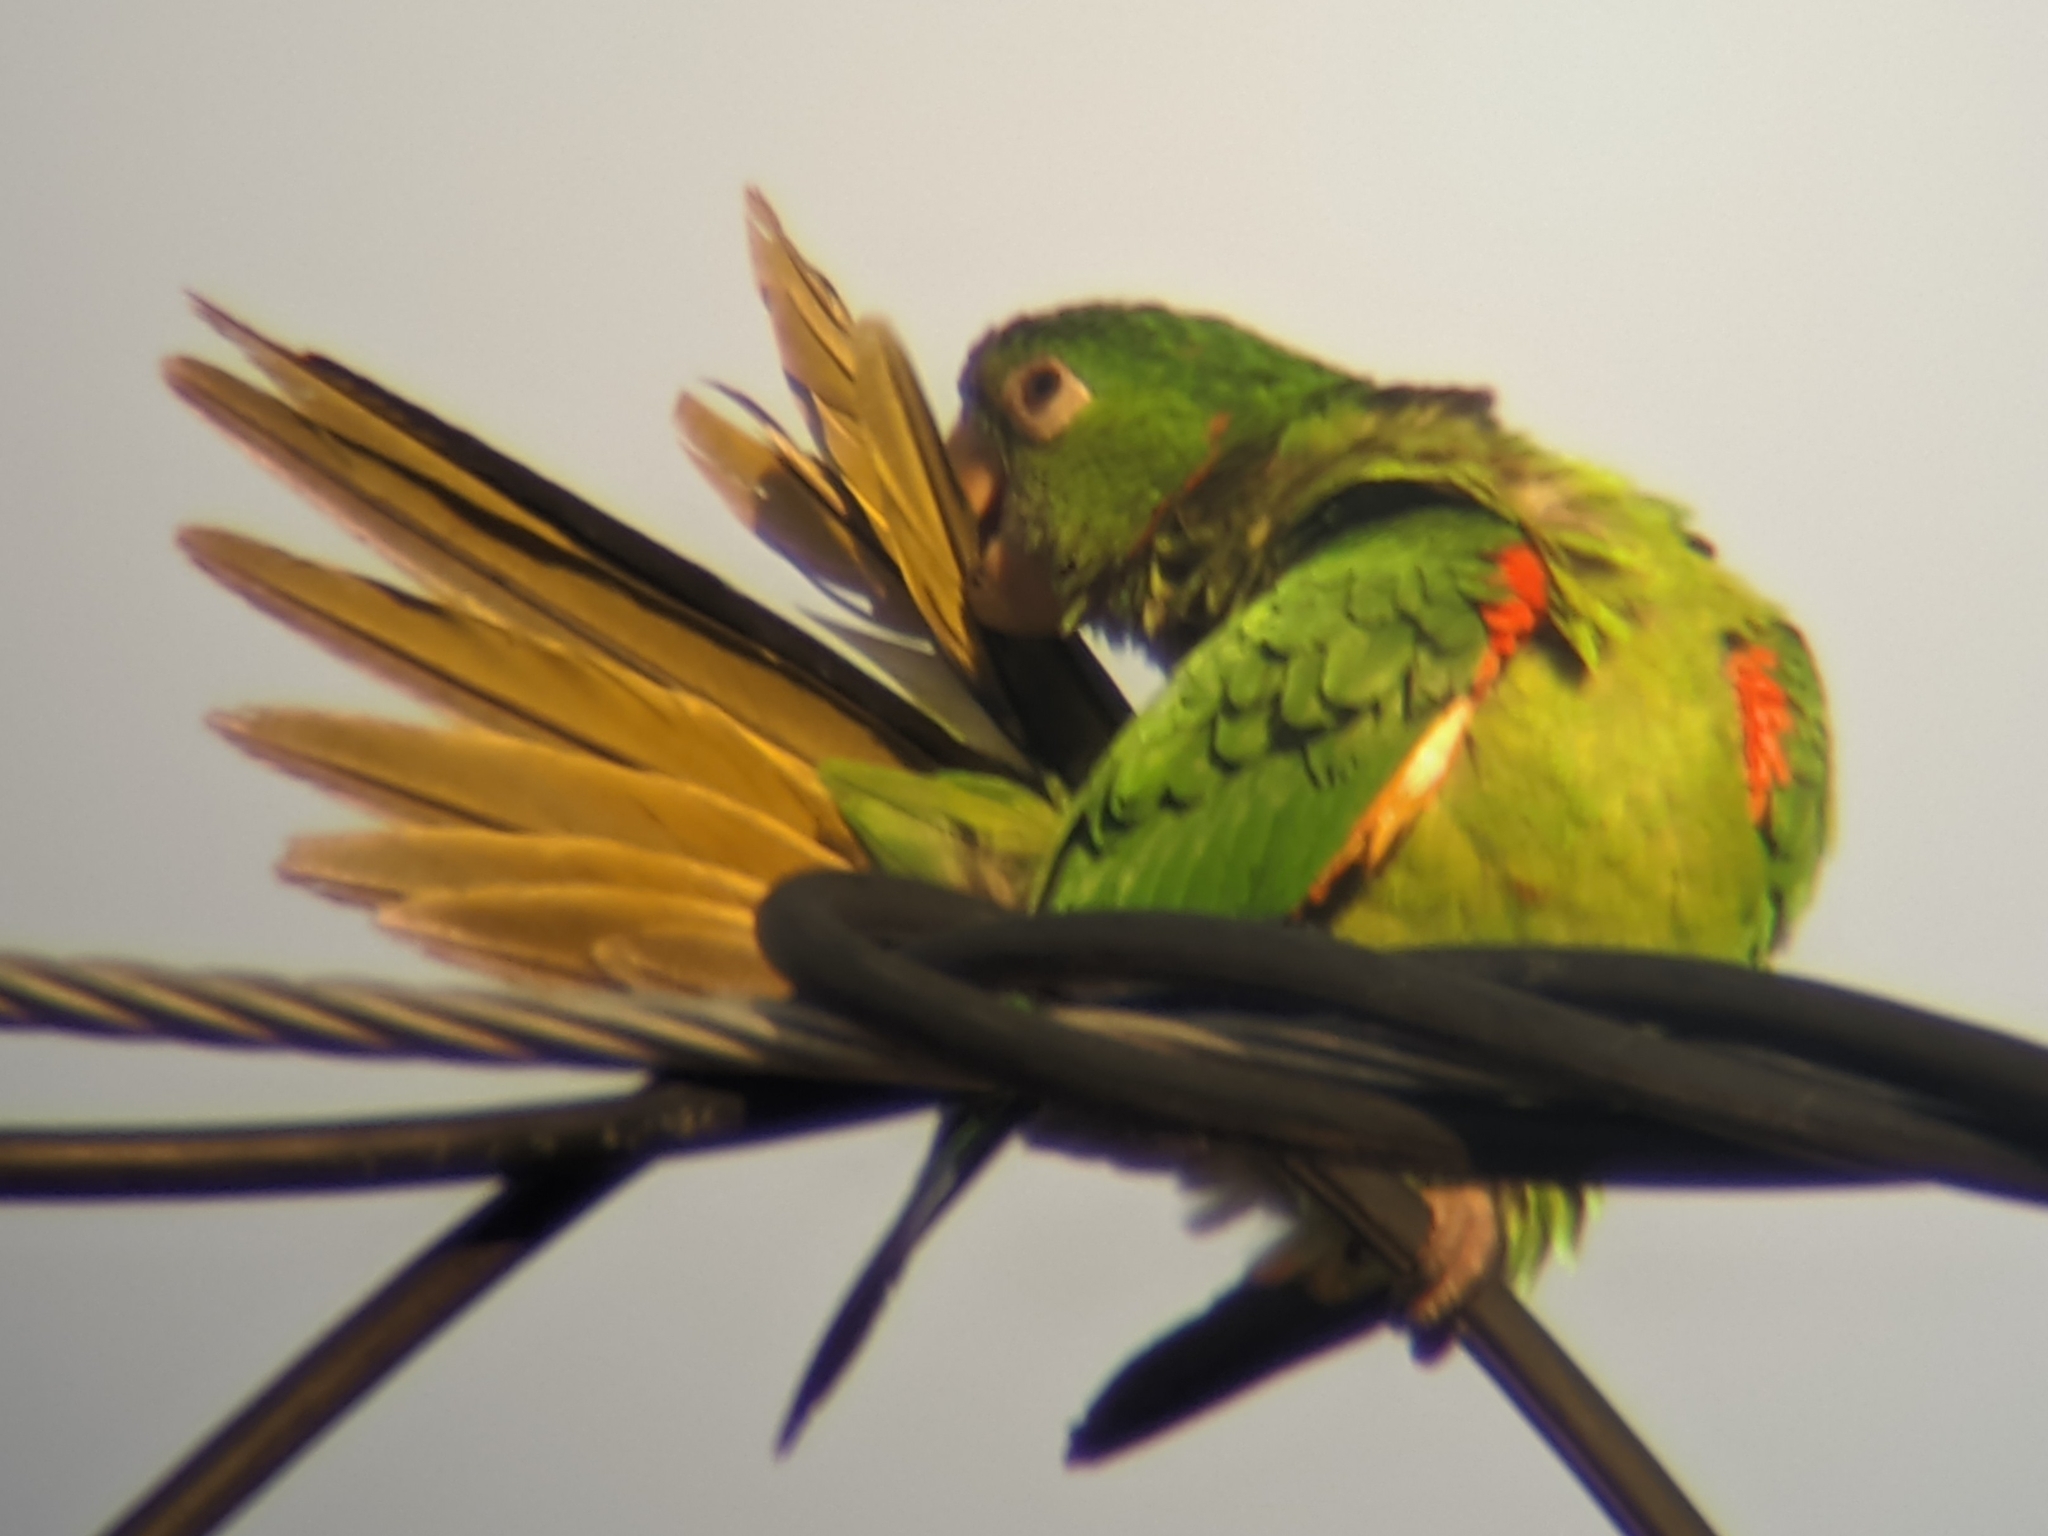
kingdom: Animalia
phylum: Chordata
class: Aves
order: Psittaciformes
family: Psittacidae
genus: Aratinga
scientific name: Aratinga leucophthalma
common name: White-eyed parakeet
